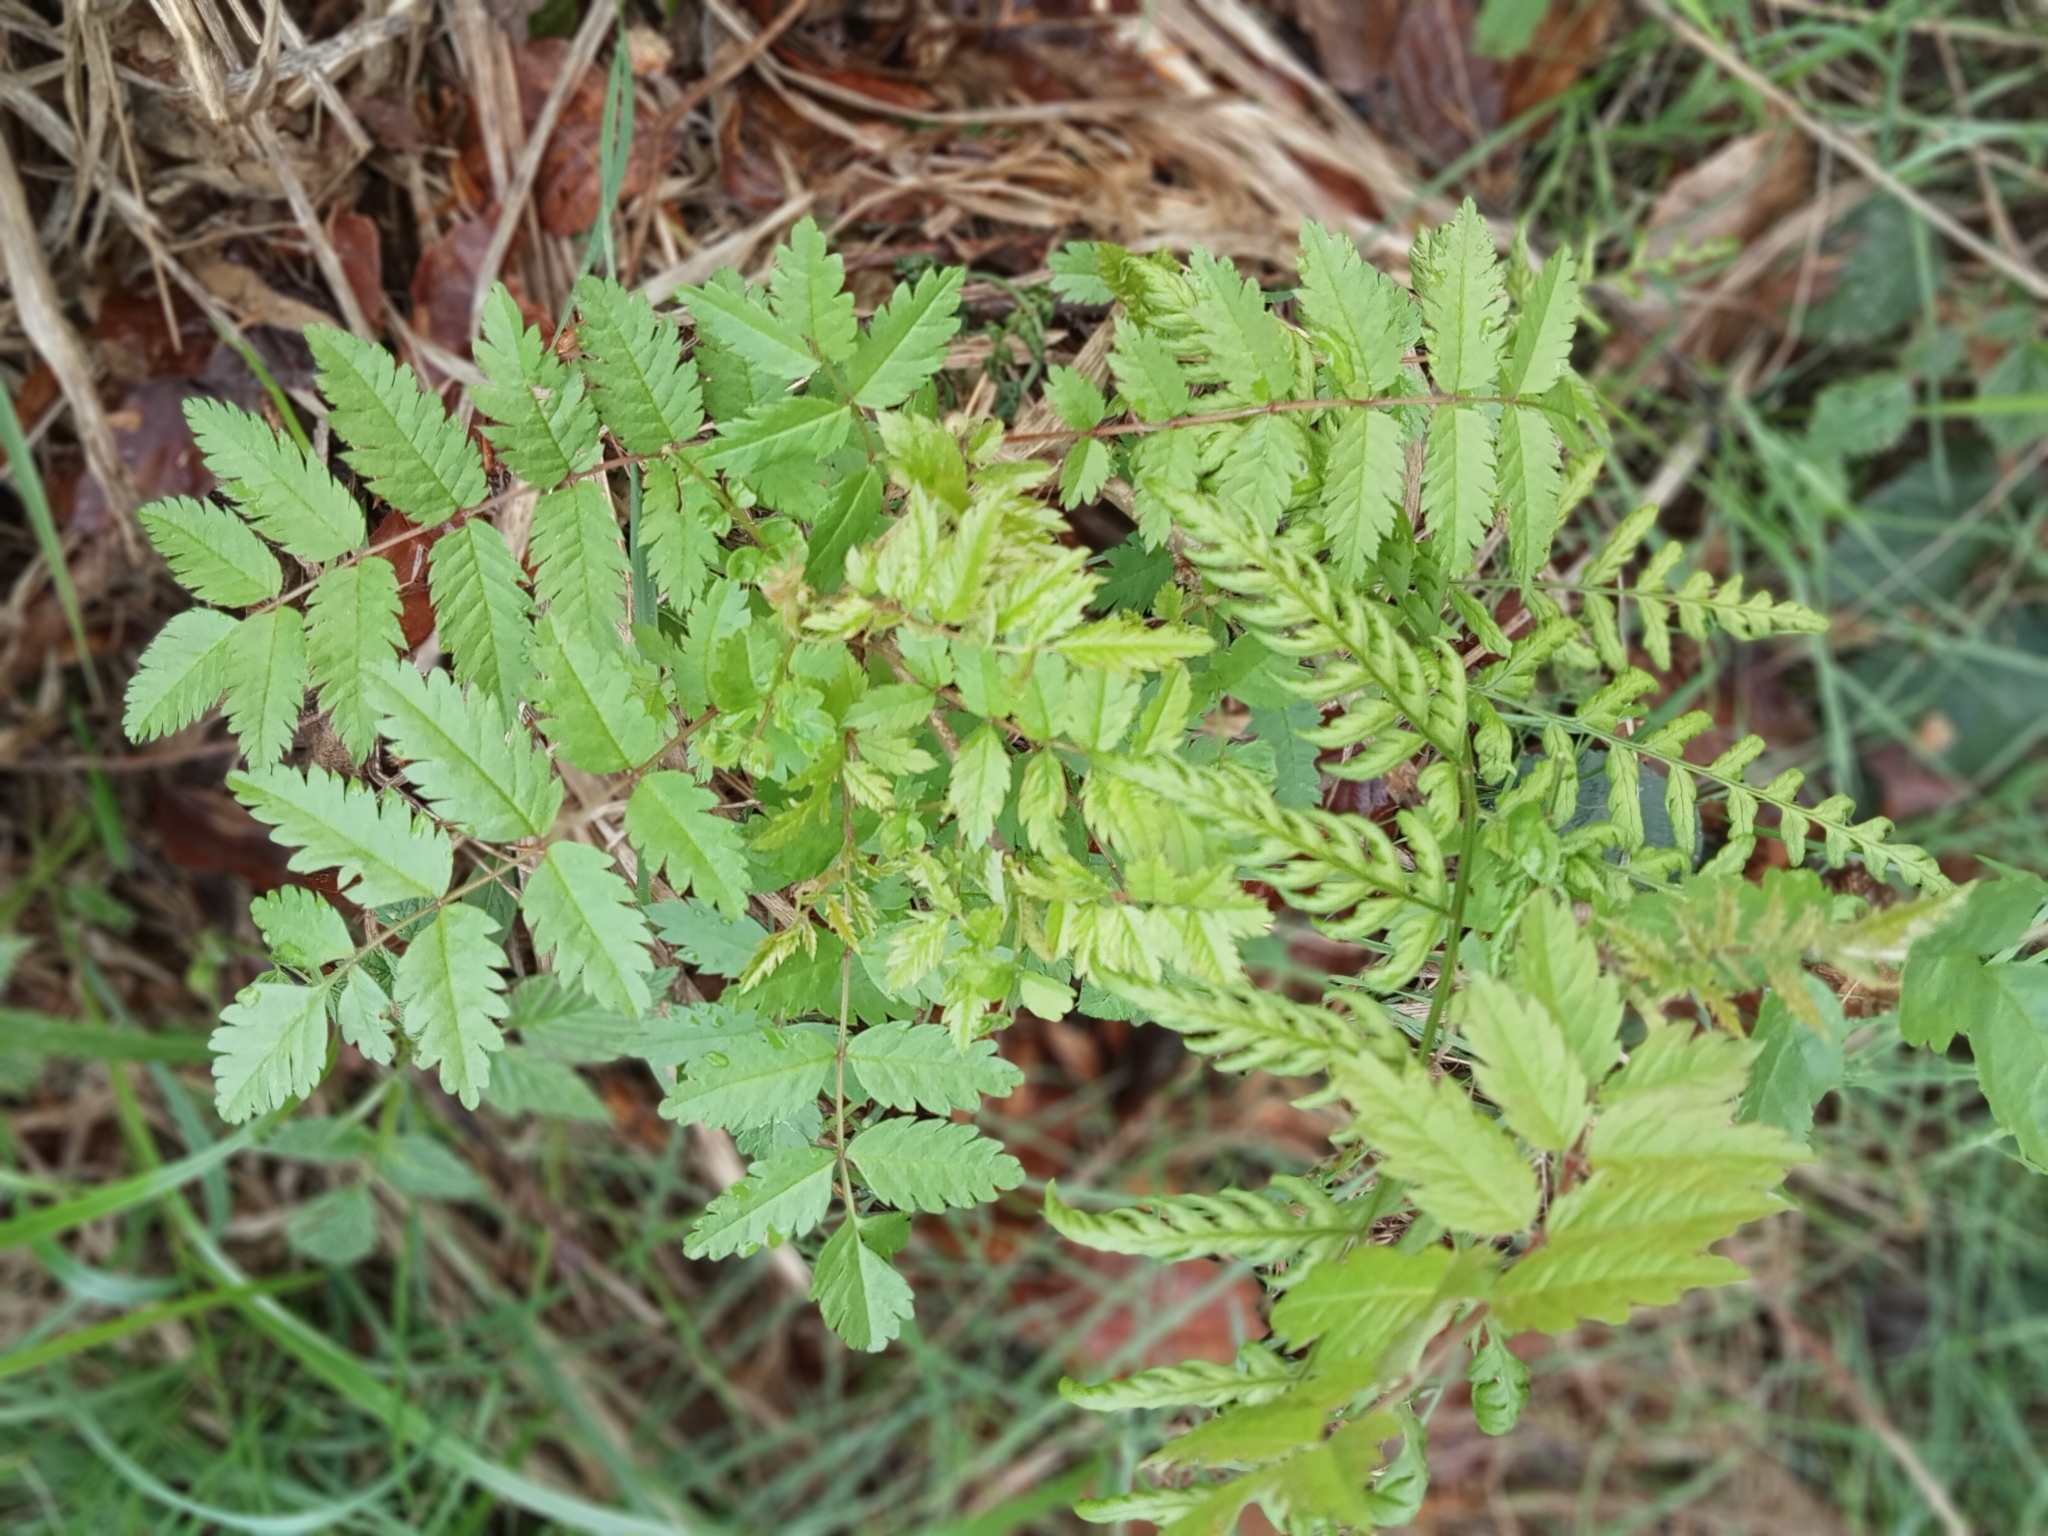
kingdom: Plantae
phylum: Tracheophyta
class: Magnoliopsida
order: Rosales
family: Rosaceae
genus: Sorbus
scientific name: Sorbus aucuparia
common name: Rowan
